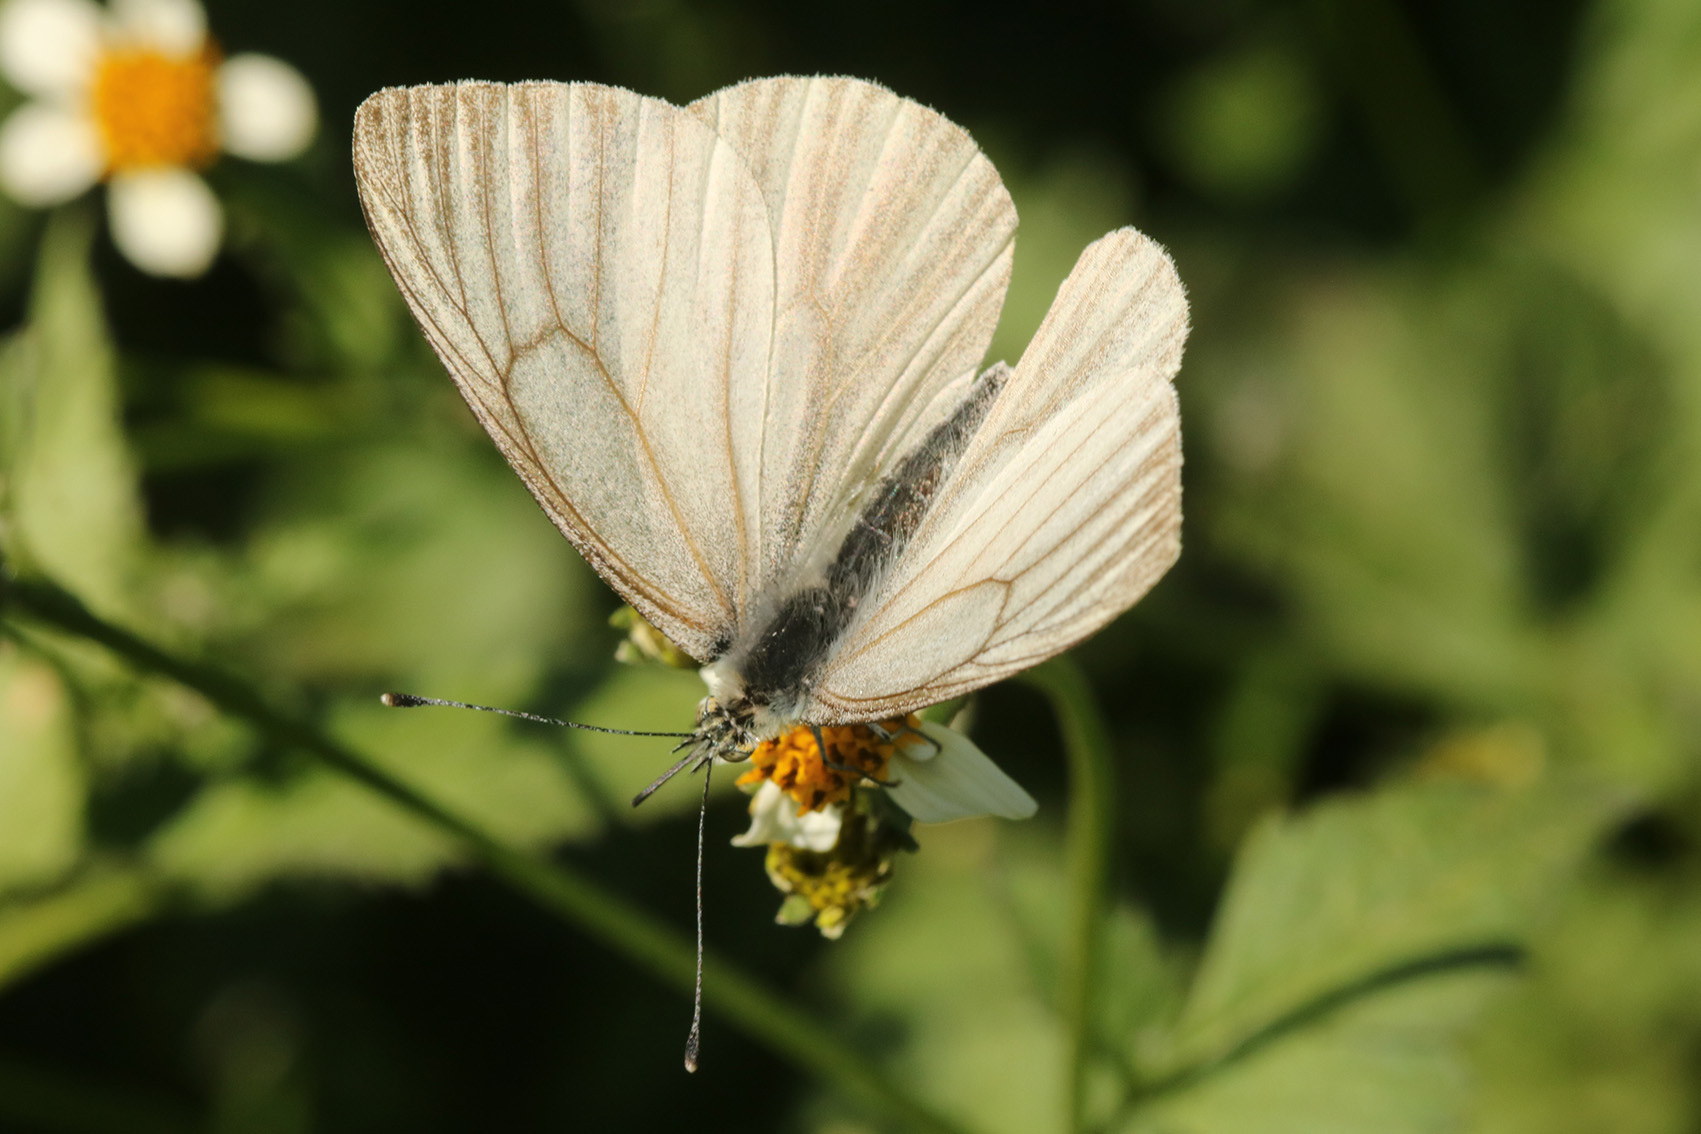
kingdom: Animalia
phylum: Arthropoda
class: Insecta
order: Lepidoptera
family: Pieridae
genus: Theochila
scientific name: Theochila maenacte
